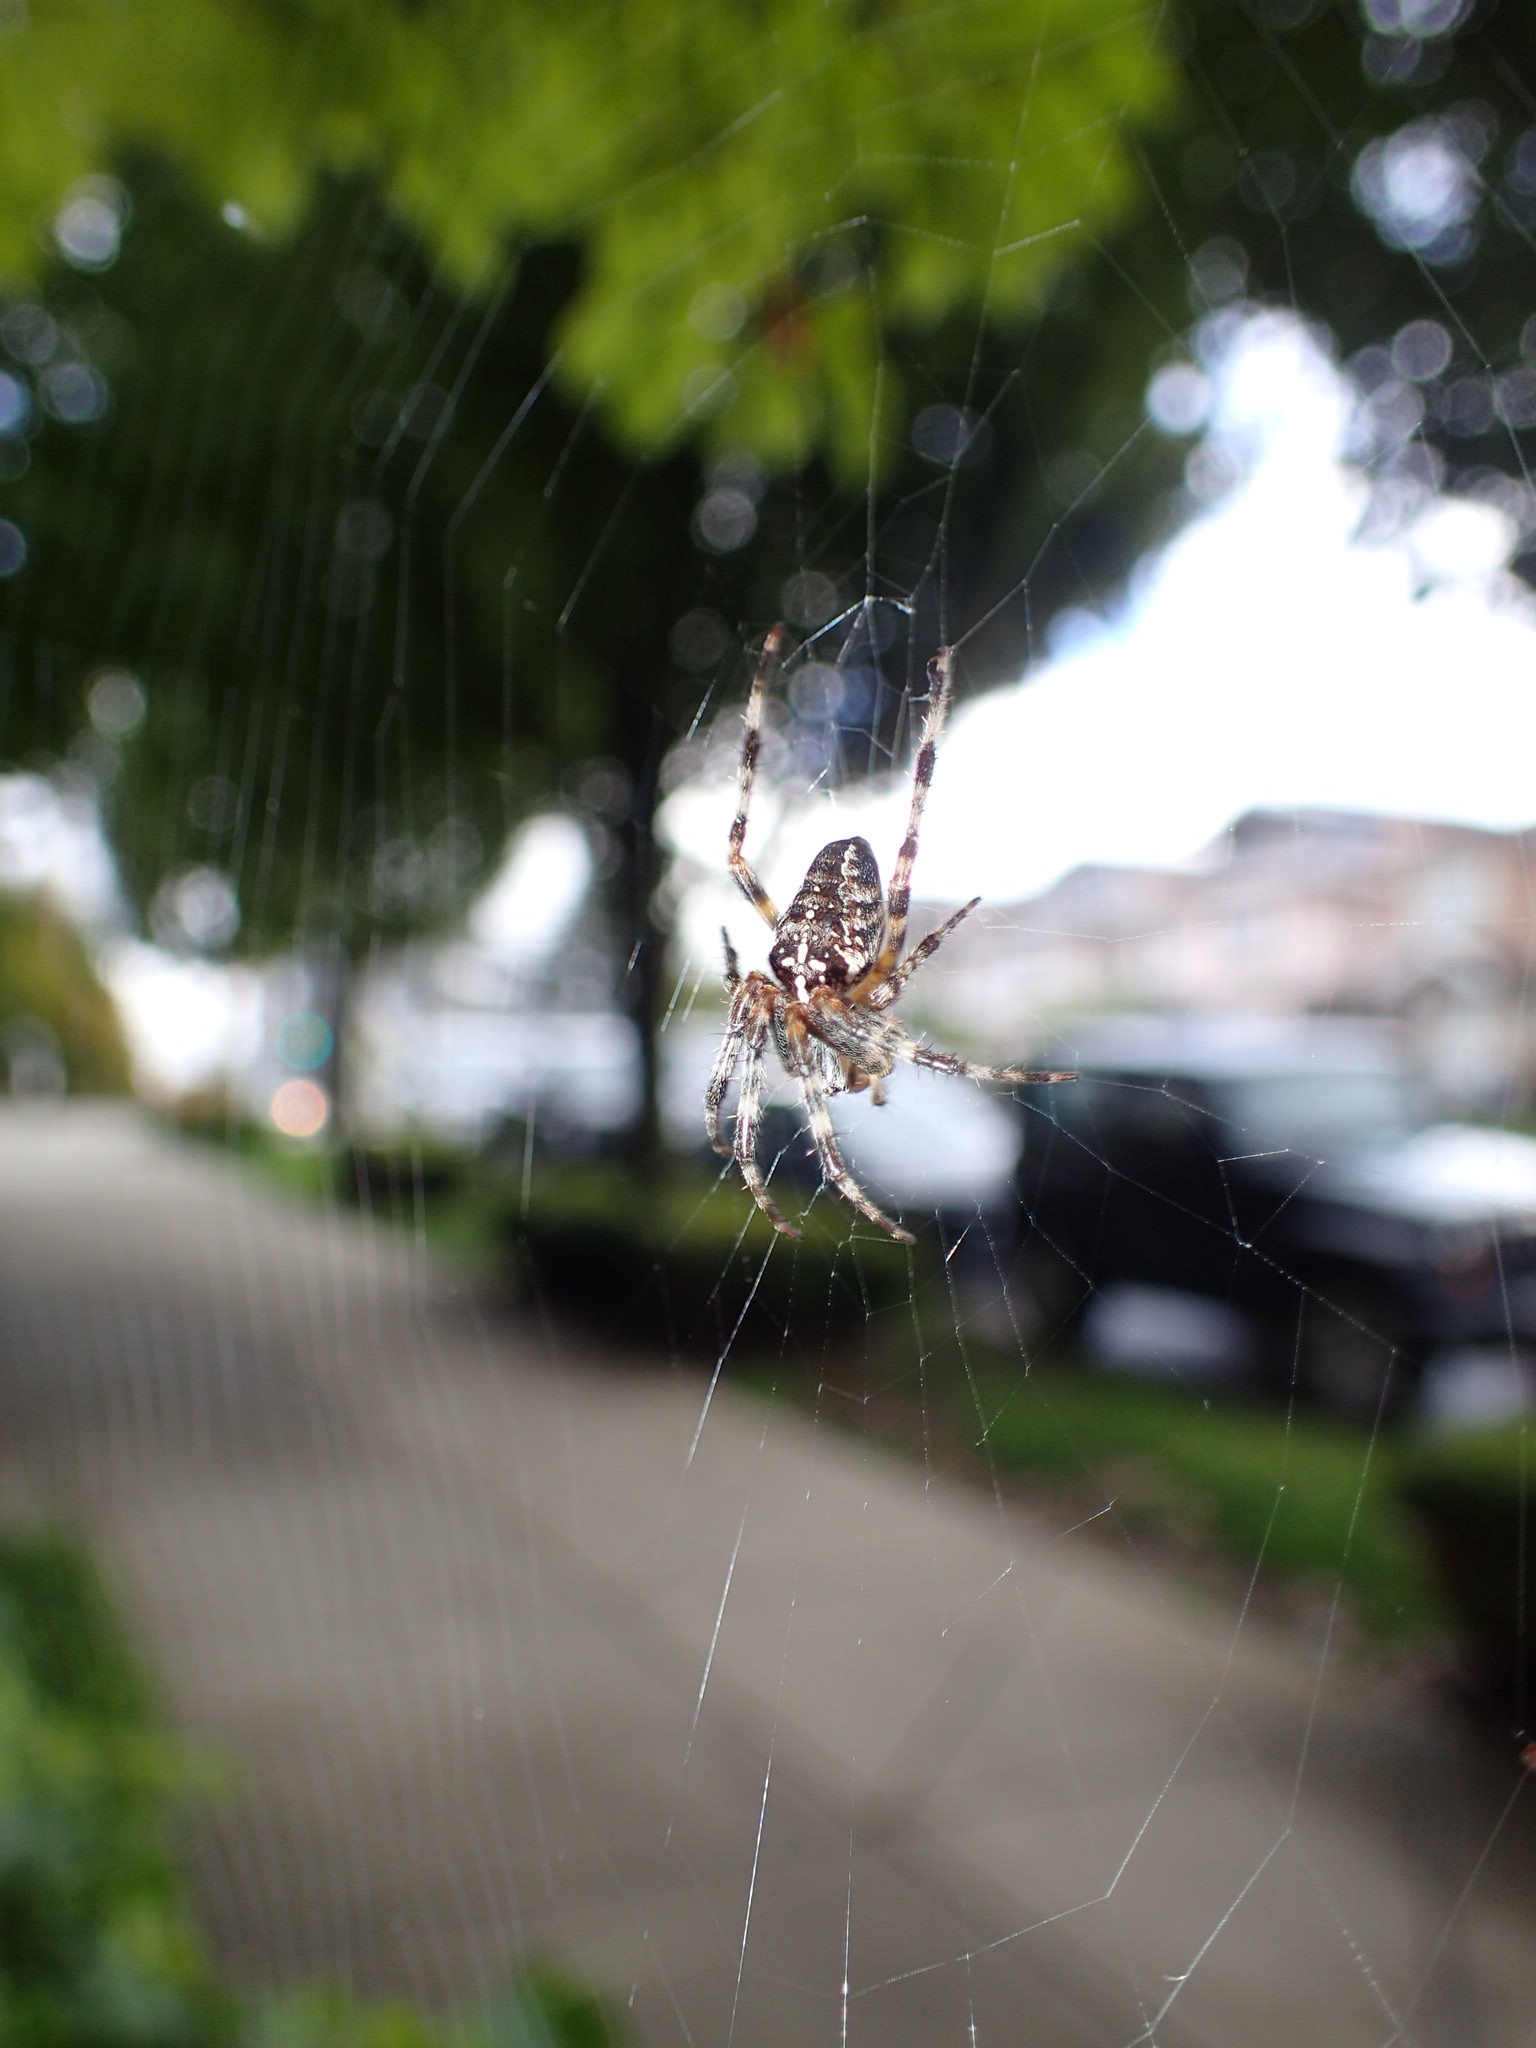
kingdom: Animalia
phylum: Arthropoda
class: Arachnida
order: Araneae
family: Araneidae
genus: Araneus
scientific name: Araneus diadematus
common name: Cross orbweaver
